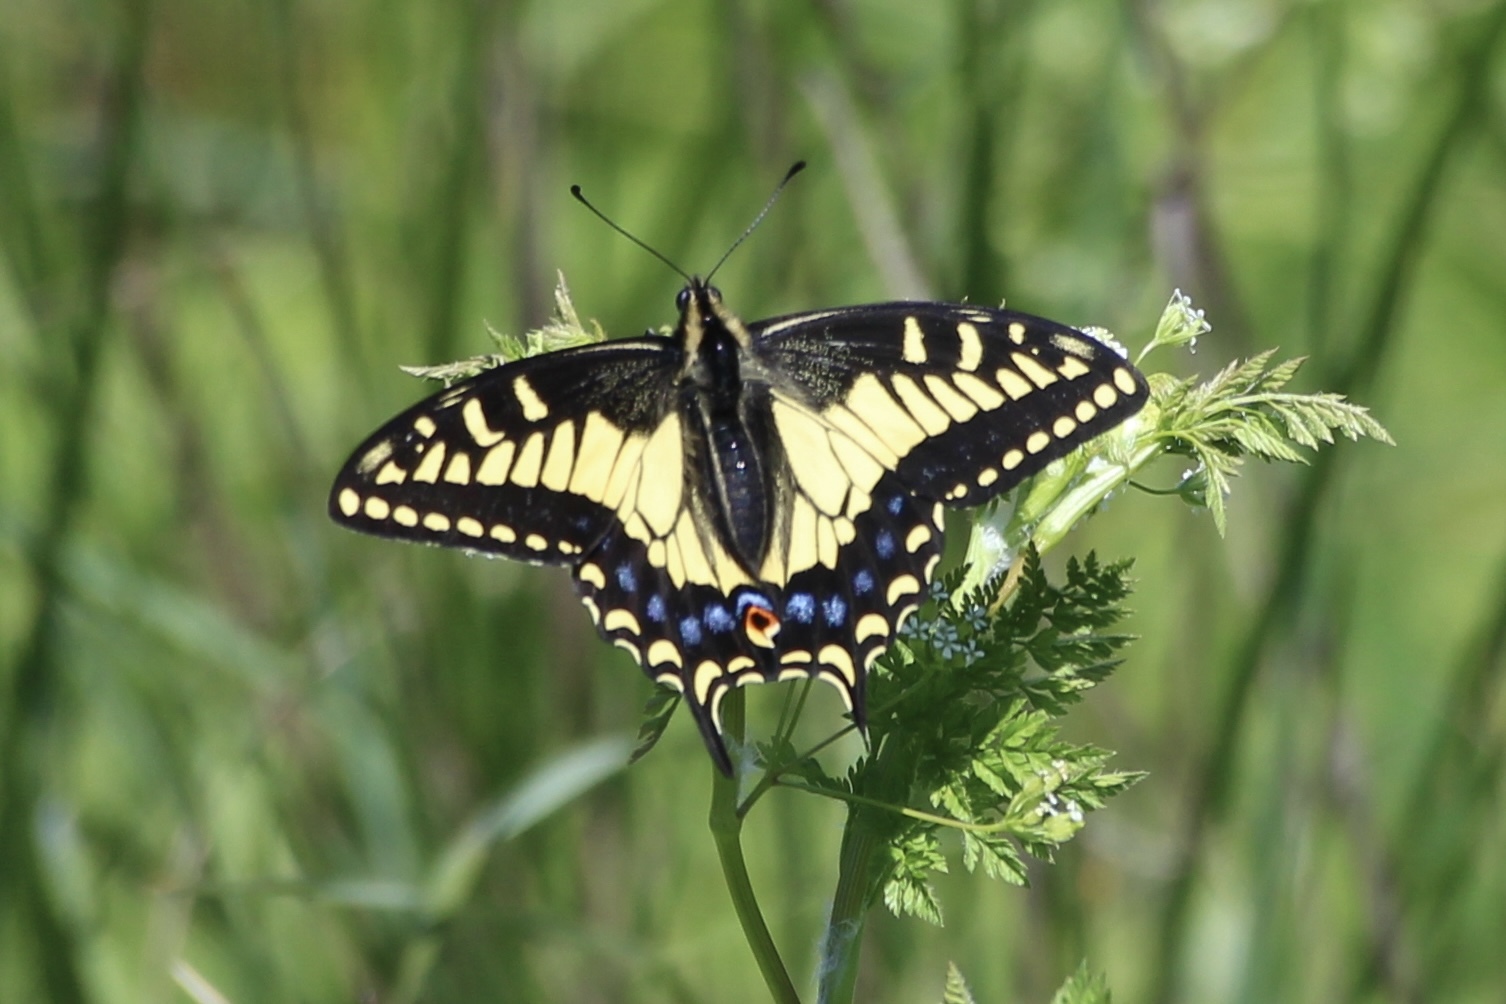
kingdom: Animalia
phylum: Arthropoda
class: Insecta
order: Lepidoptera
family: Papilionidae
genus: Papilio
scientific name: Papilio zelicaon
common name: Anise swallowtail
